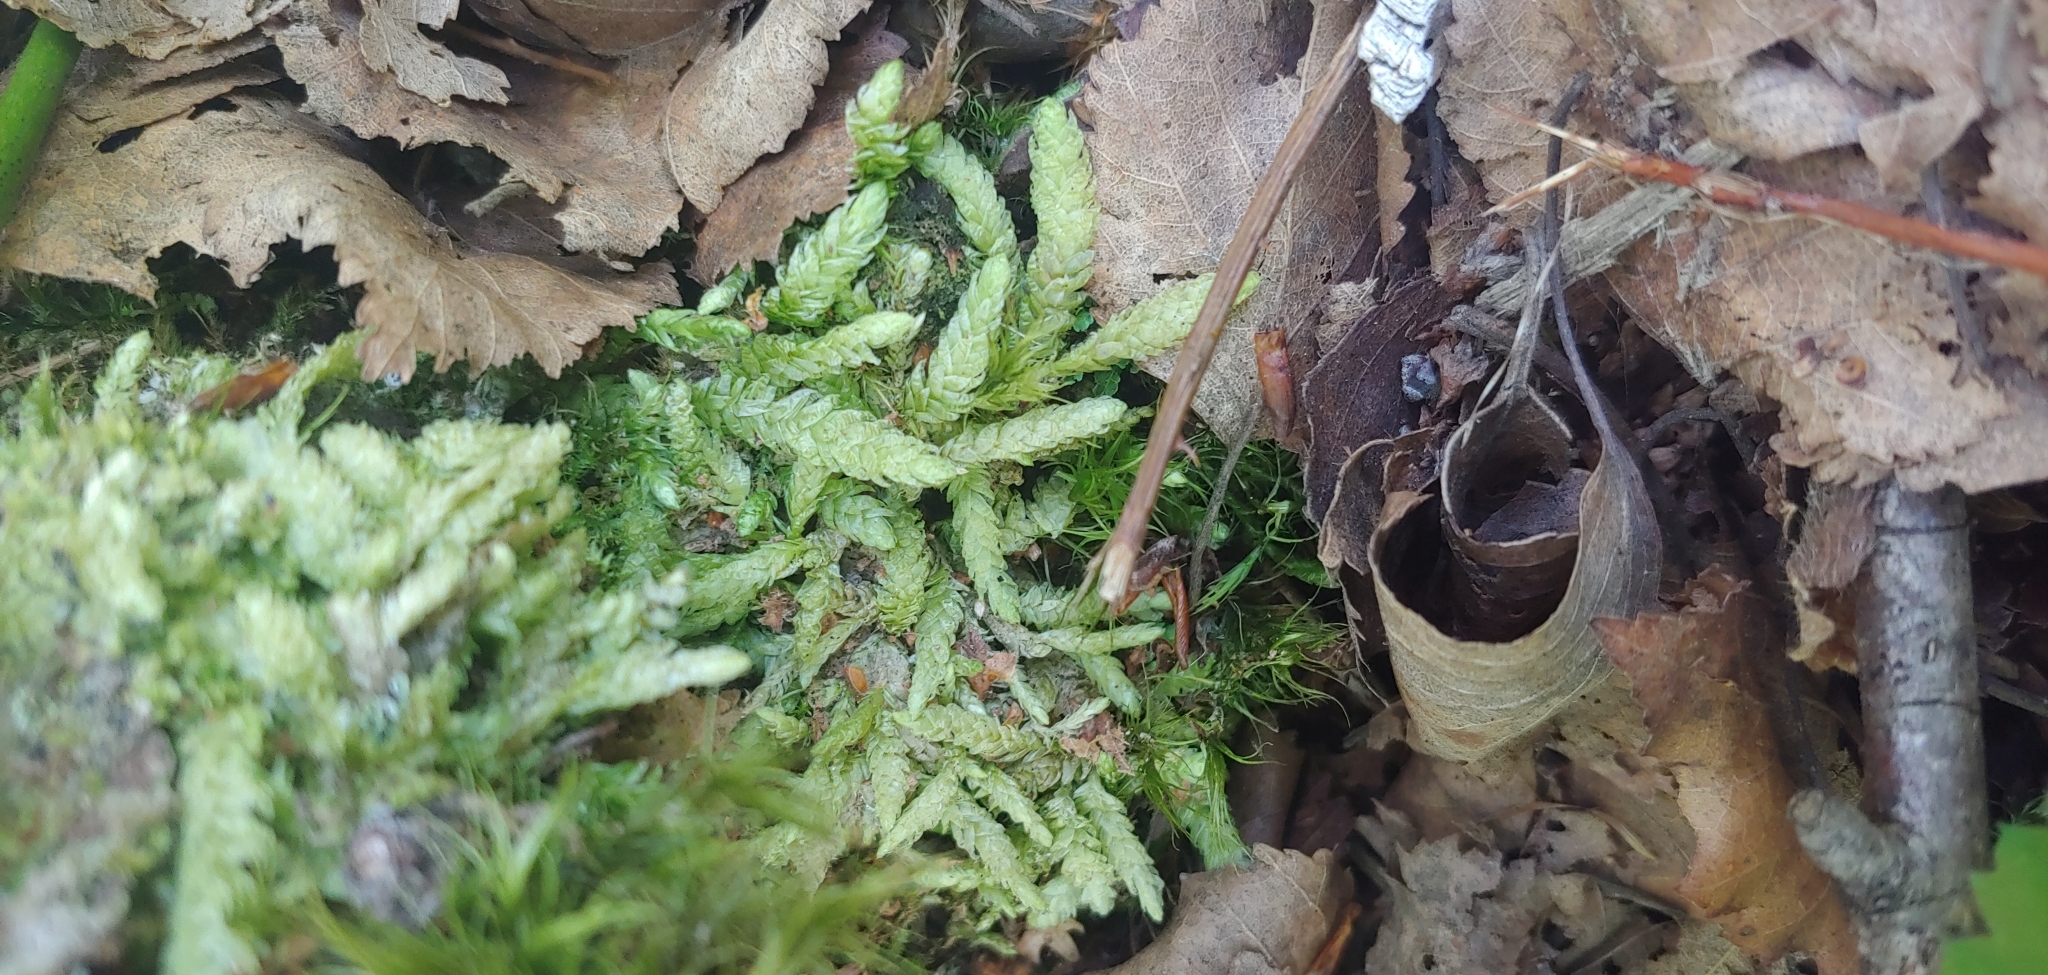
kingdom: Plantae
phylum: Bryophyta
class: Bryopsida
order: Hypnales
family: Plagiotheciaceae
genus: Plagiothecium
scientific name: Plagiothecium undulatum
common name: Waved silk-moss
